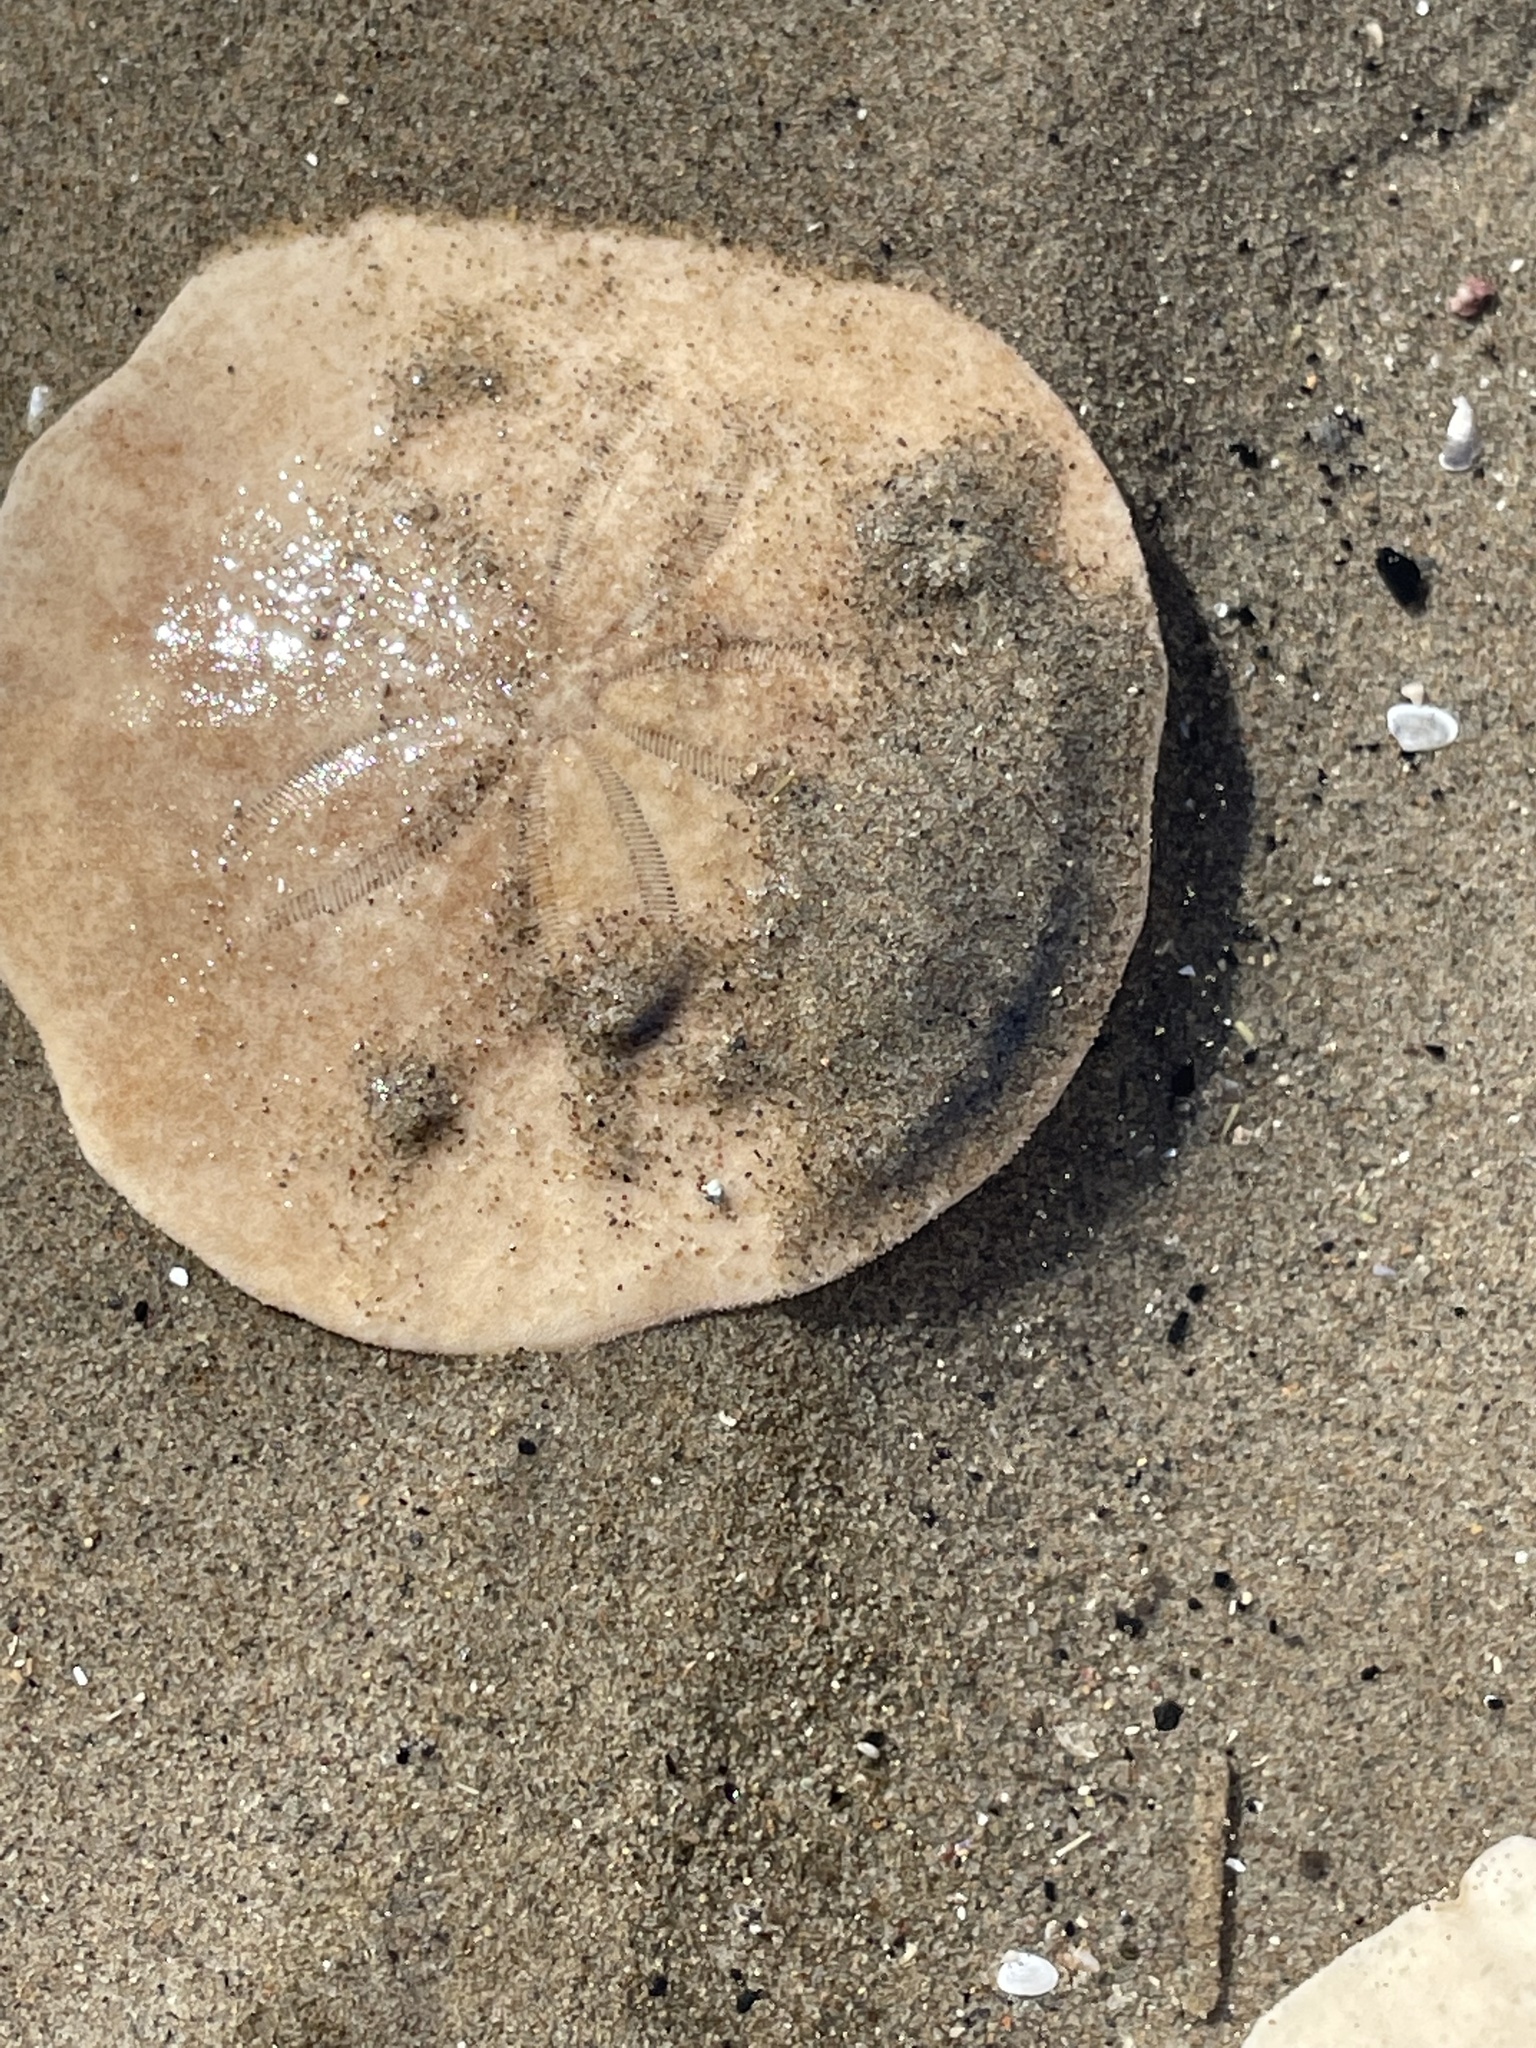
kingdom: Animalia
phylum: Echinodermata
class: Echinoidea
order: Echinolampadacea
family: Echinarachniidae
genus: Echinarachnius
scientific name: Echinarachnius parma
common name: Common sand dollar
